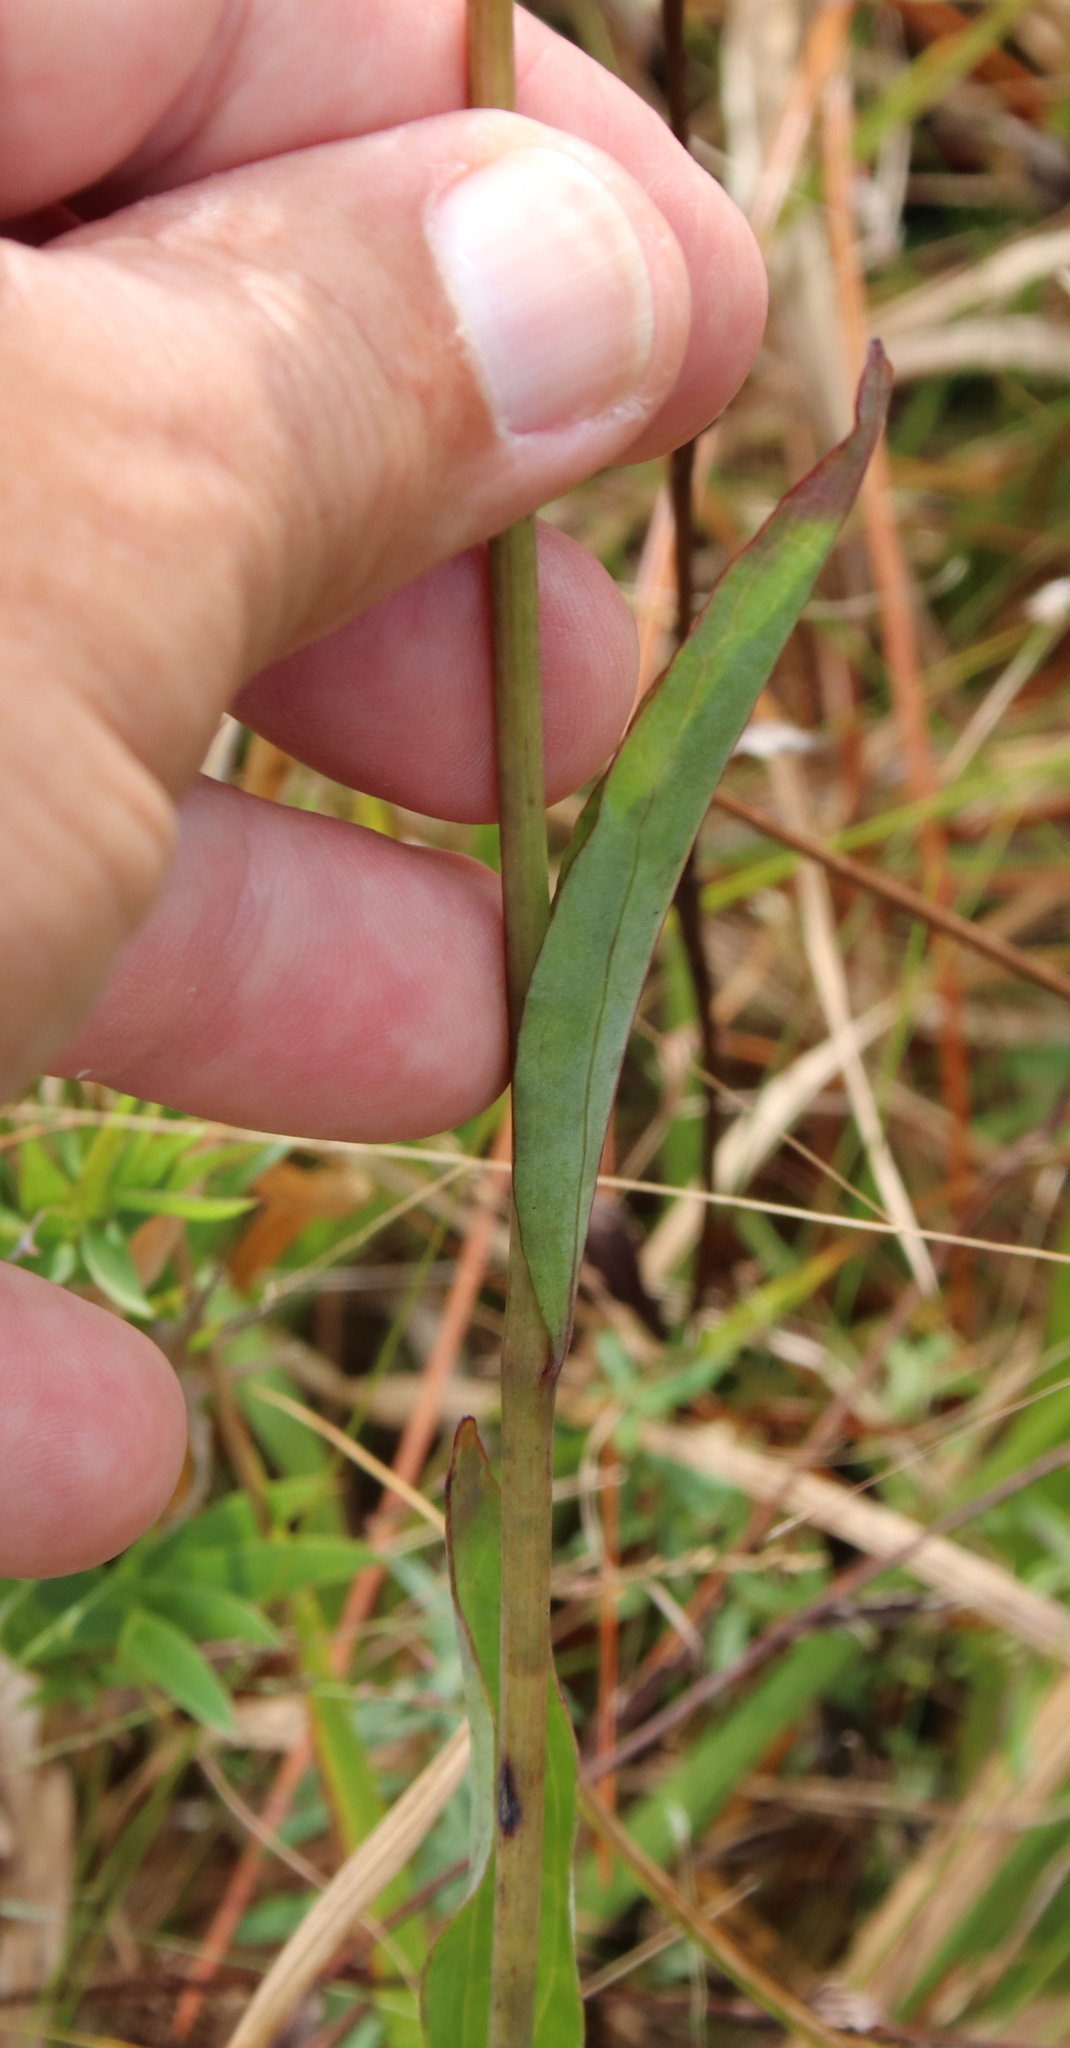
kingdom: Plantae
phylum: Tracheophyta
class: Magnoliopsida
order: Asterales
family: Asteraceae
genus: Arnoglossum
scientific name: Arnoglossum ovatum
